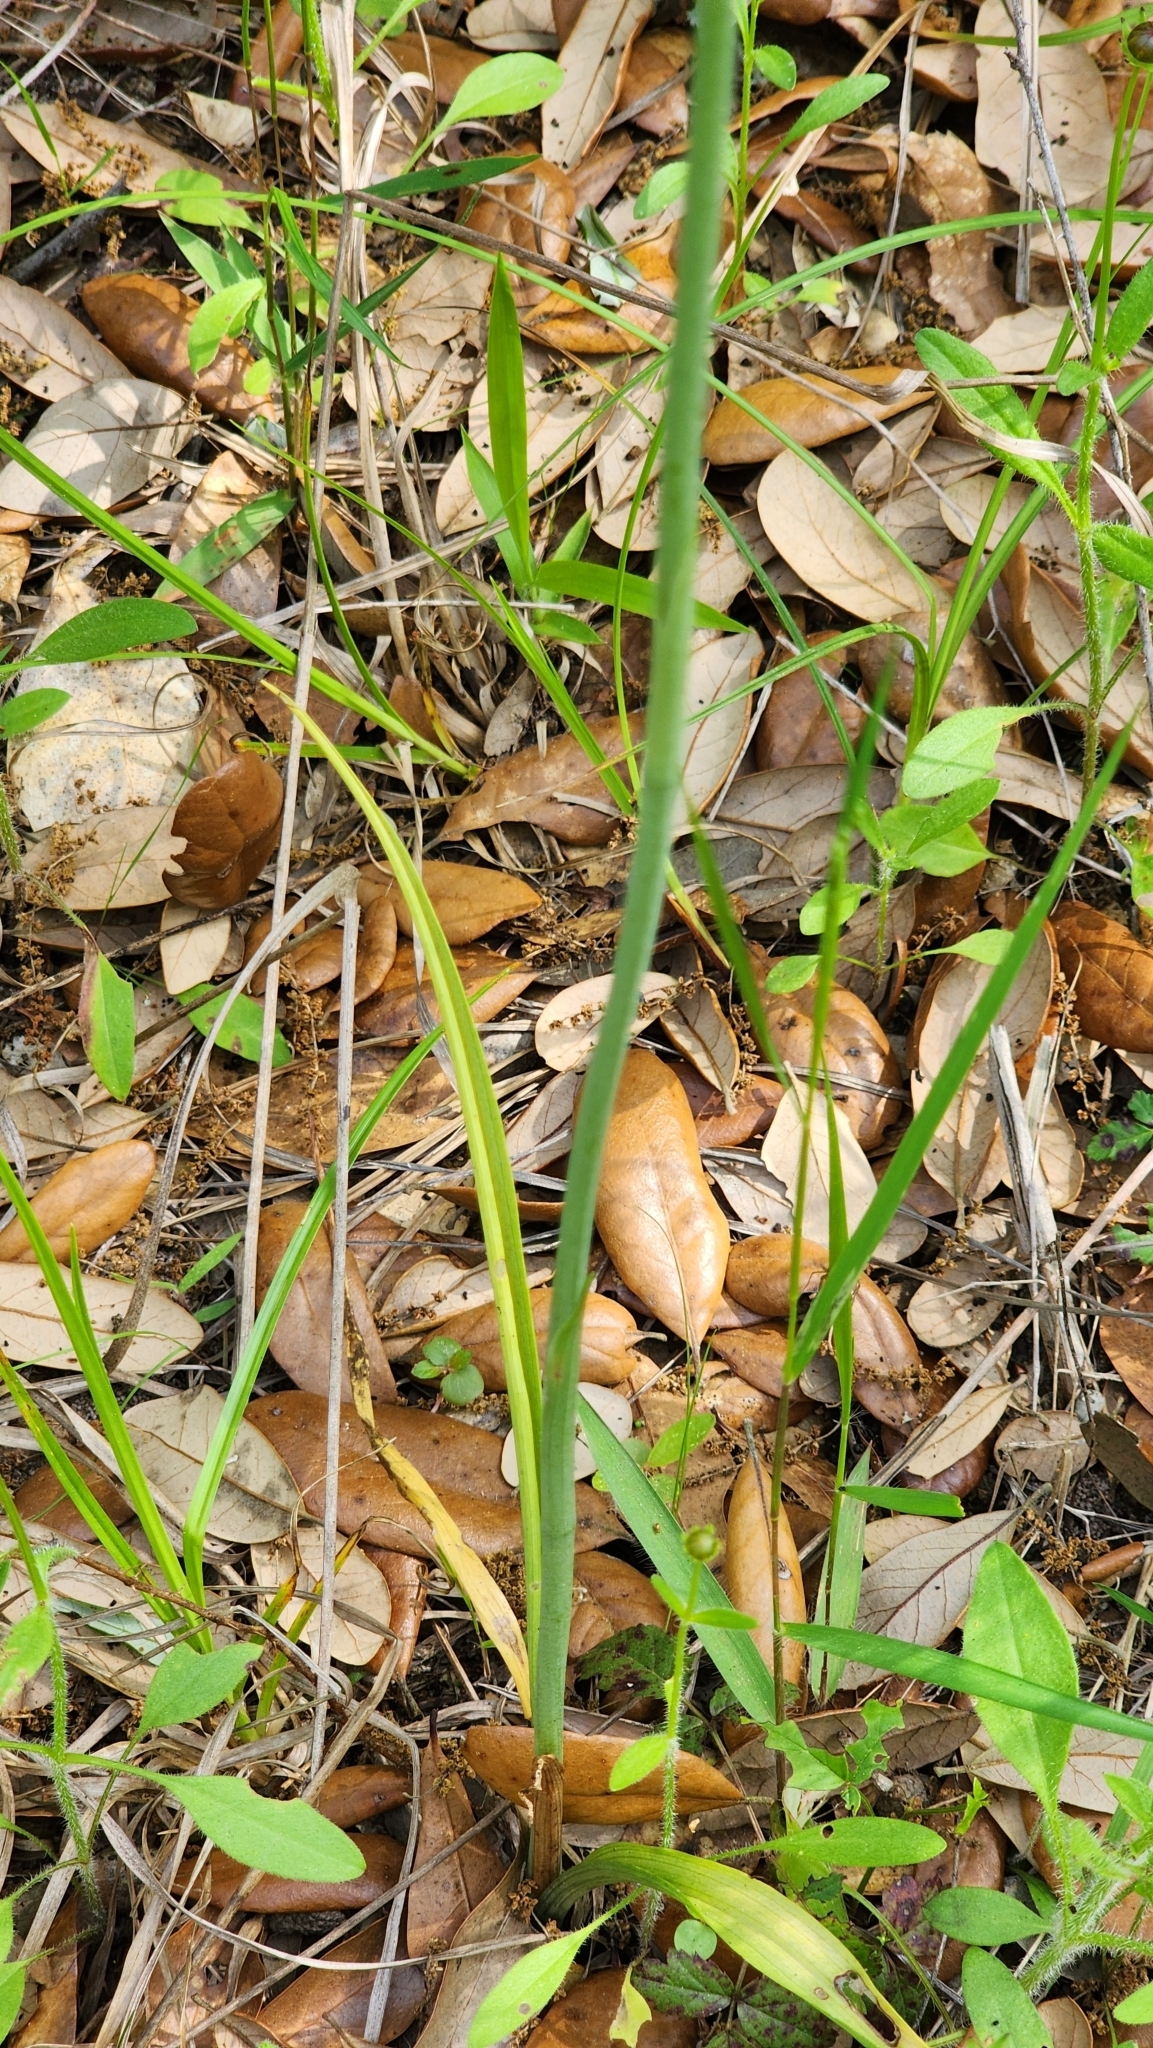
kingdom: Plantae
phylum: Tracheophyta
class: Liliopsida
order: Asparagales
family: Orchidaceae
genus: Spiranthes
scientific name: Spiranthes praecox
